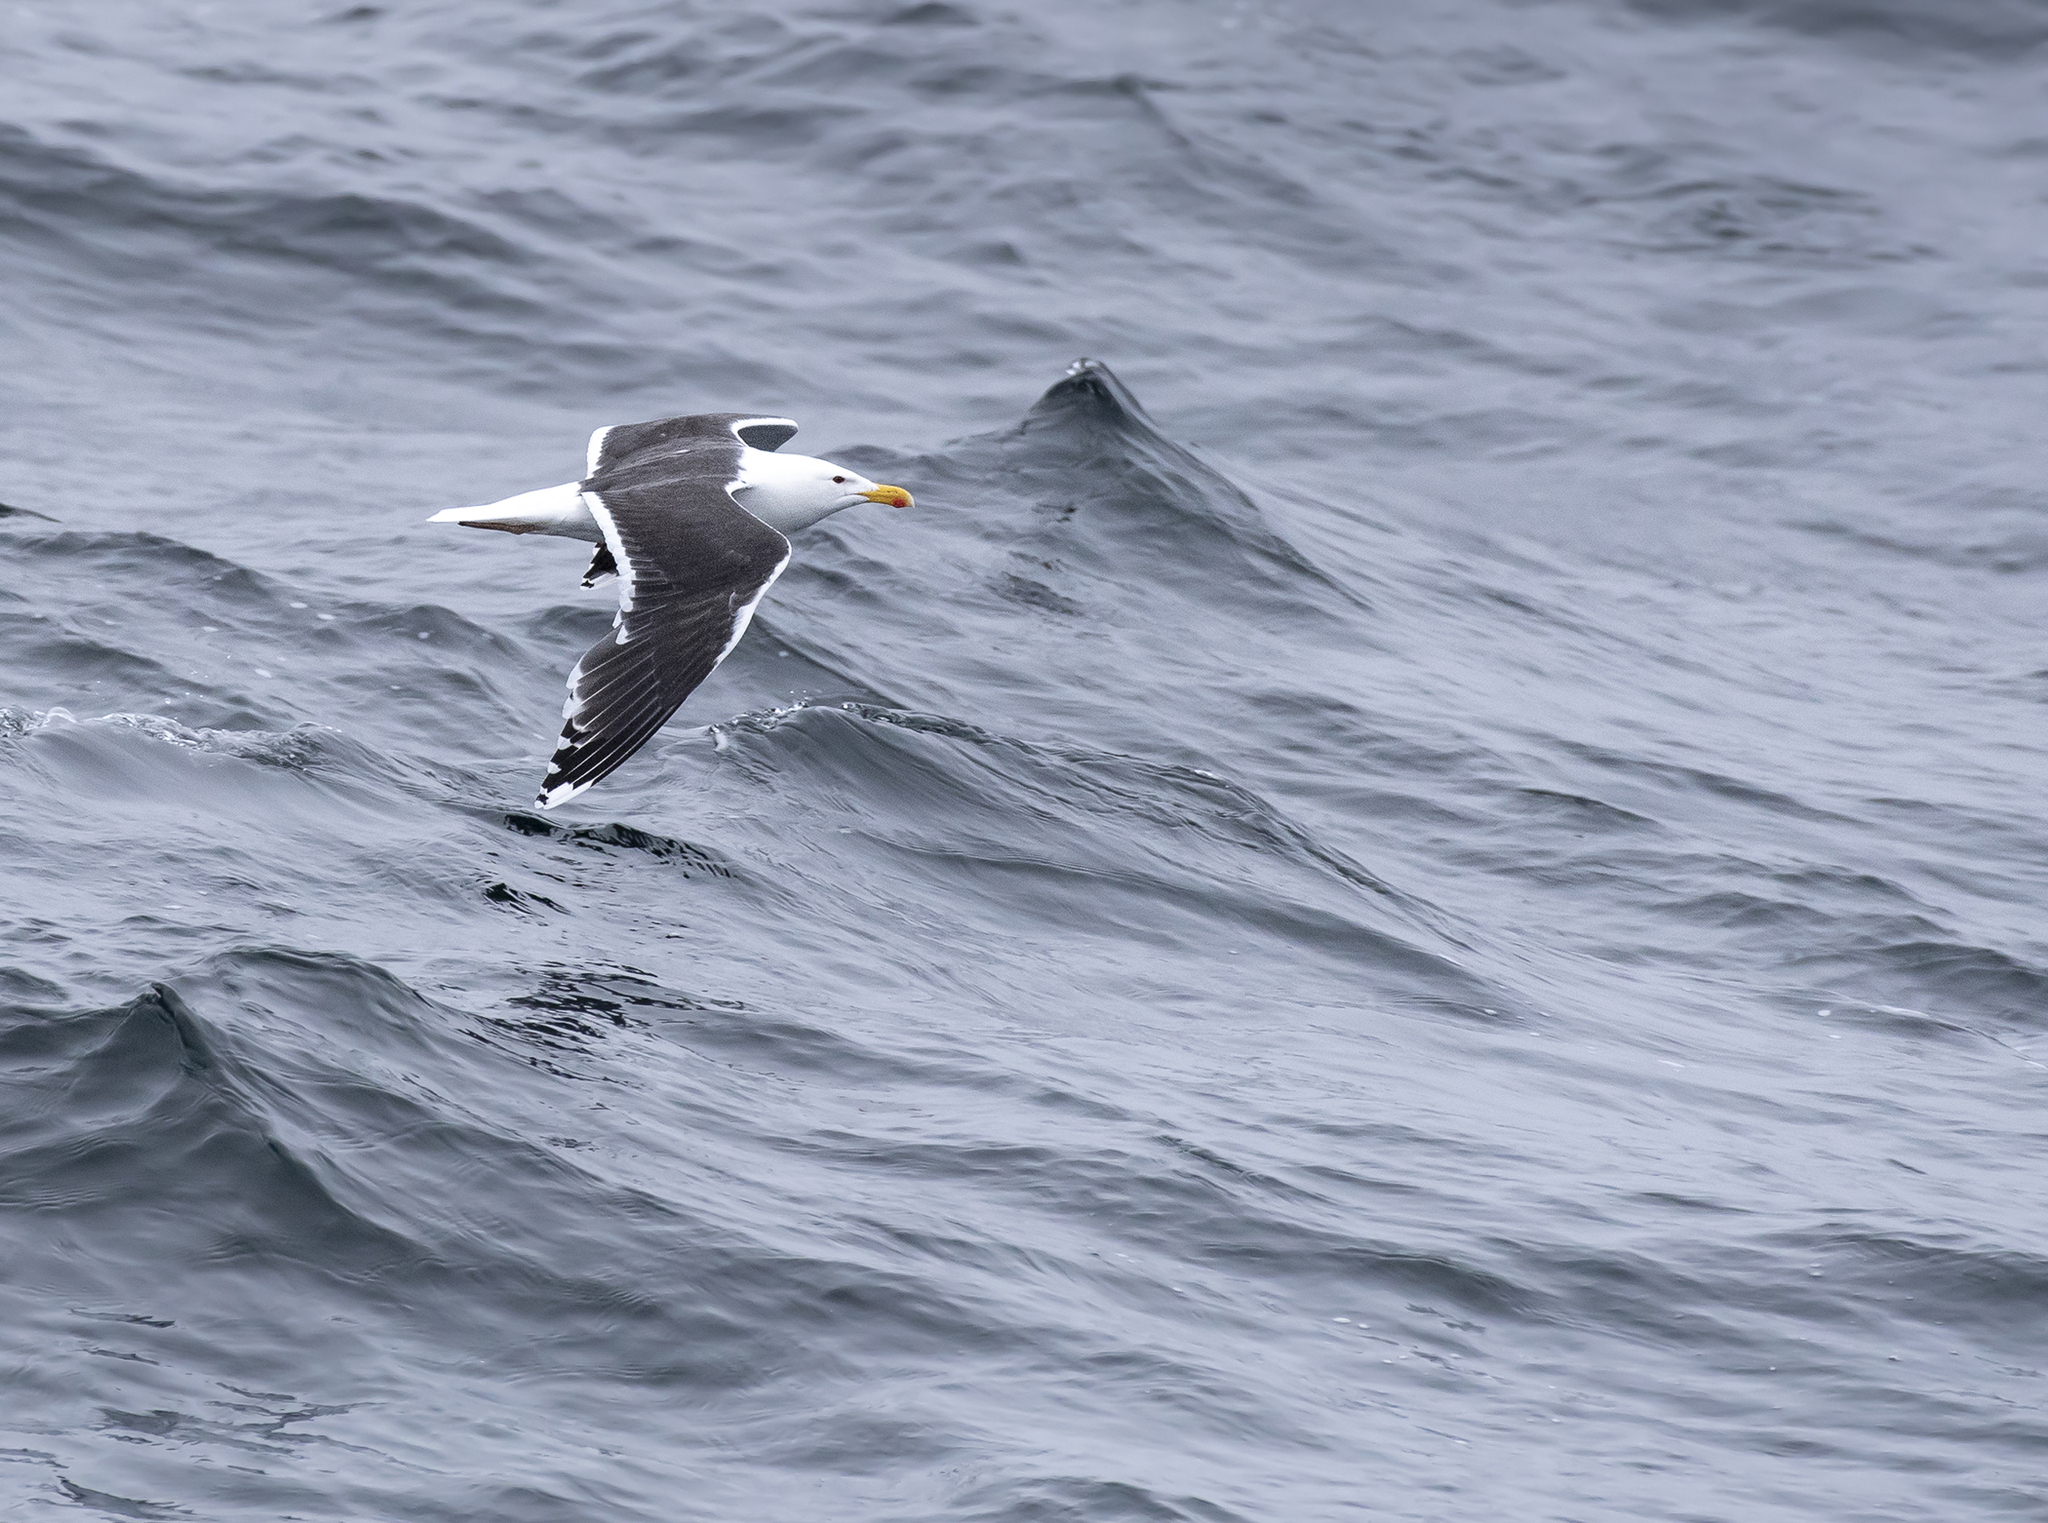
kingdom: Animalia
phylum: Chordata
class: Aves
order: Charadriiformes
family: Laridae
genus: Larus
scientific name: Larus marinus
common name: Great black-backed gull
